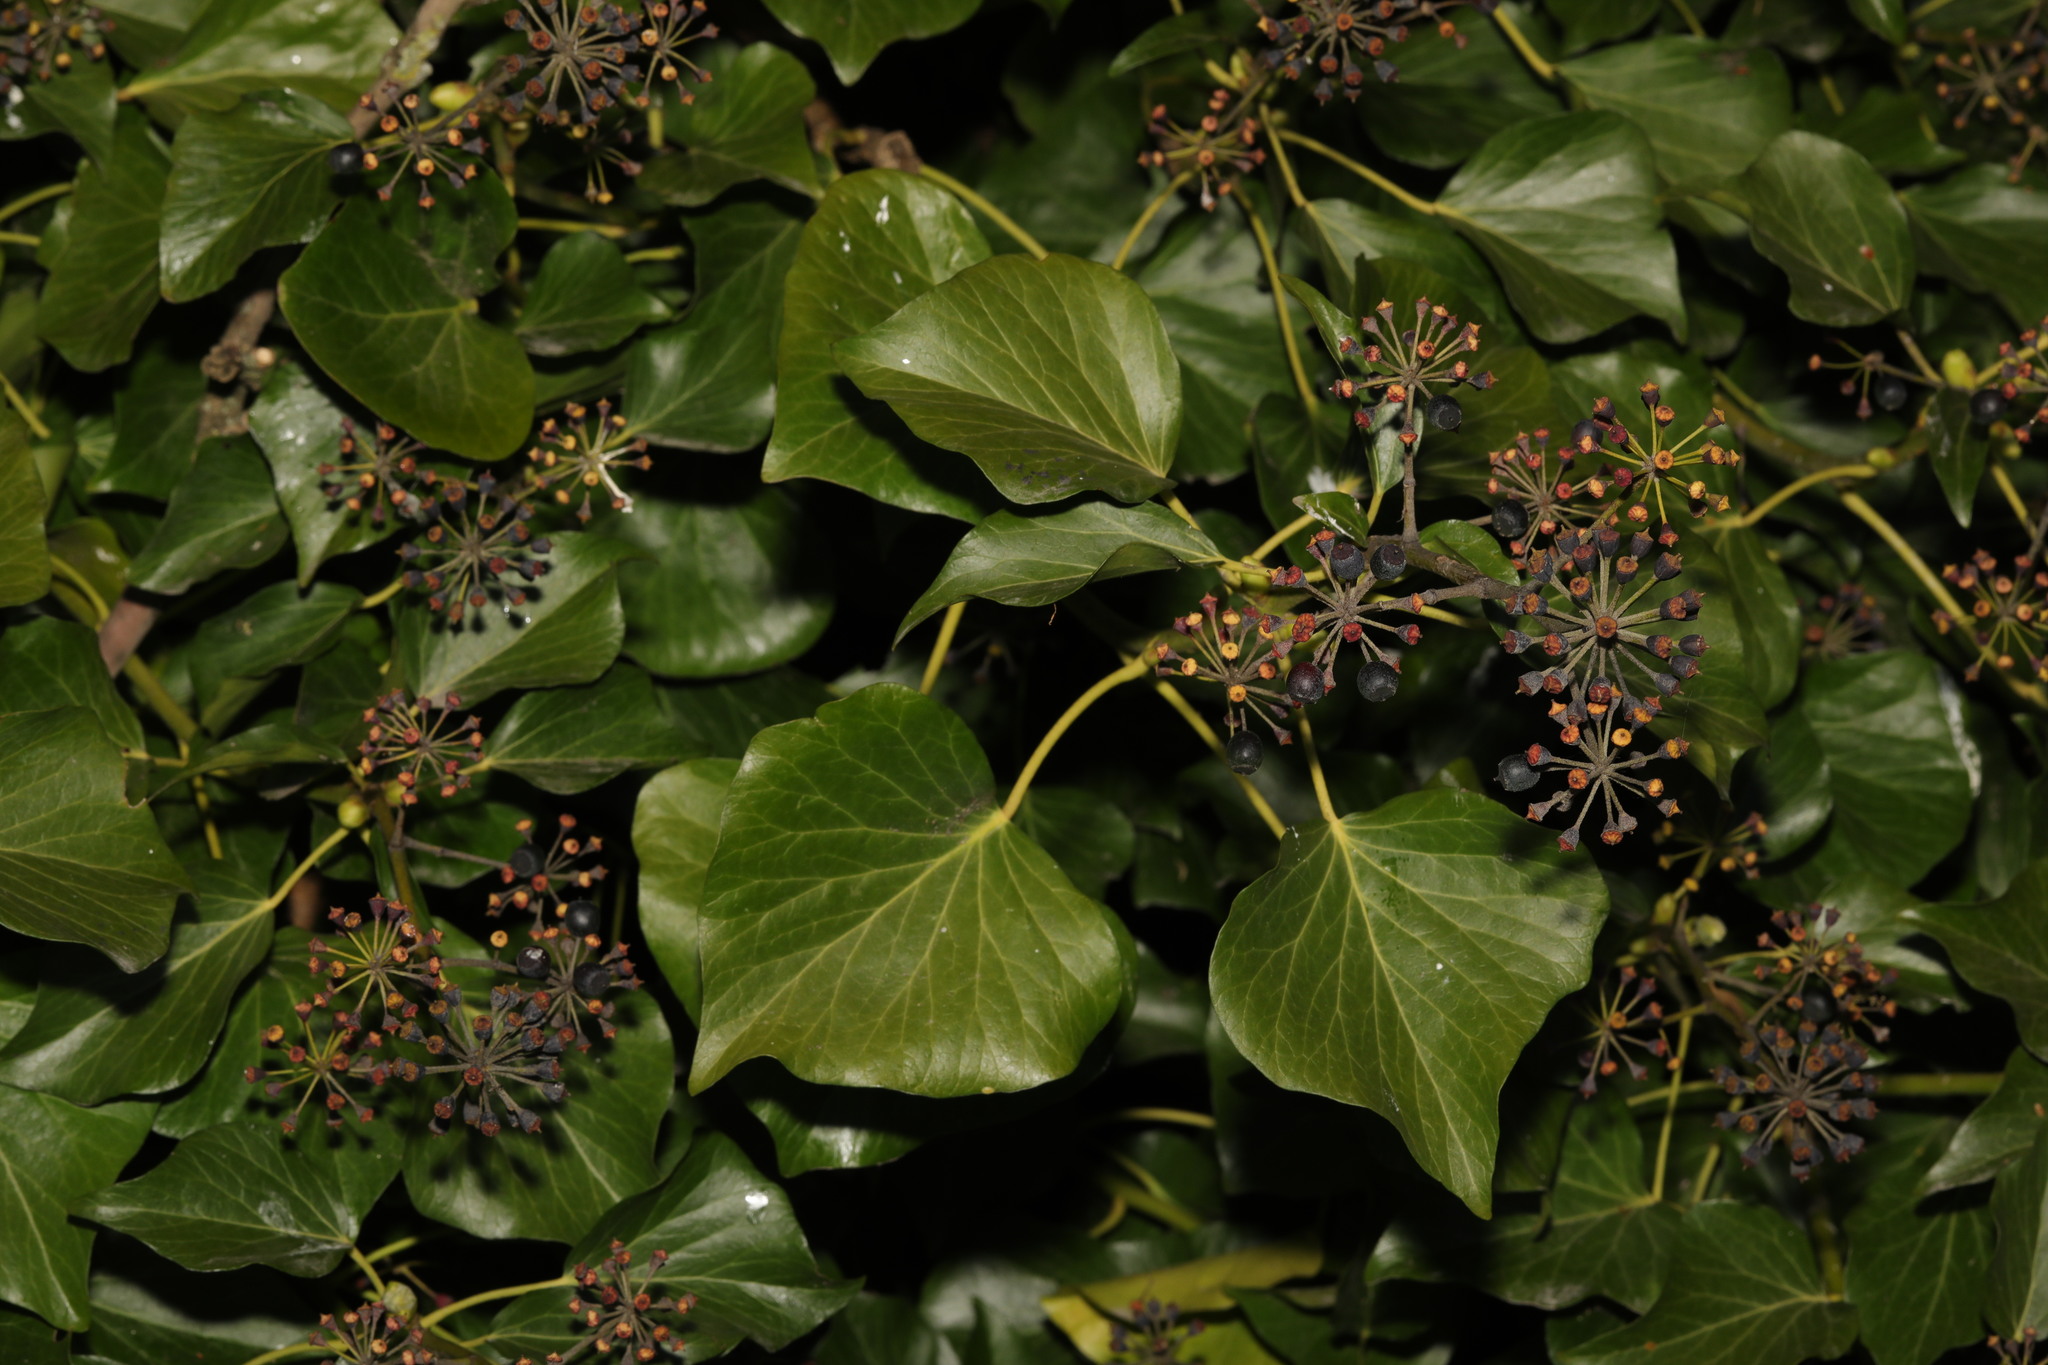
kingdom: Plantae
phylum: Tracheophyta
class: Magnoliopsida
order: Apiales
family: Araliaceae
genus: Hedera
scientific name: Hedera helix
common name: Ivy
